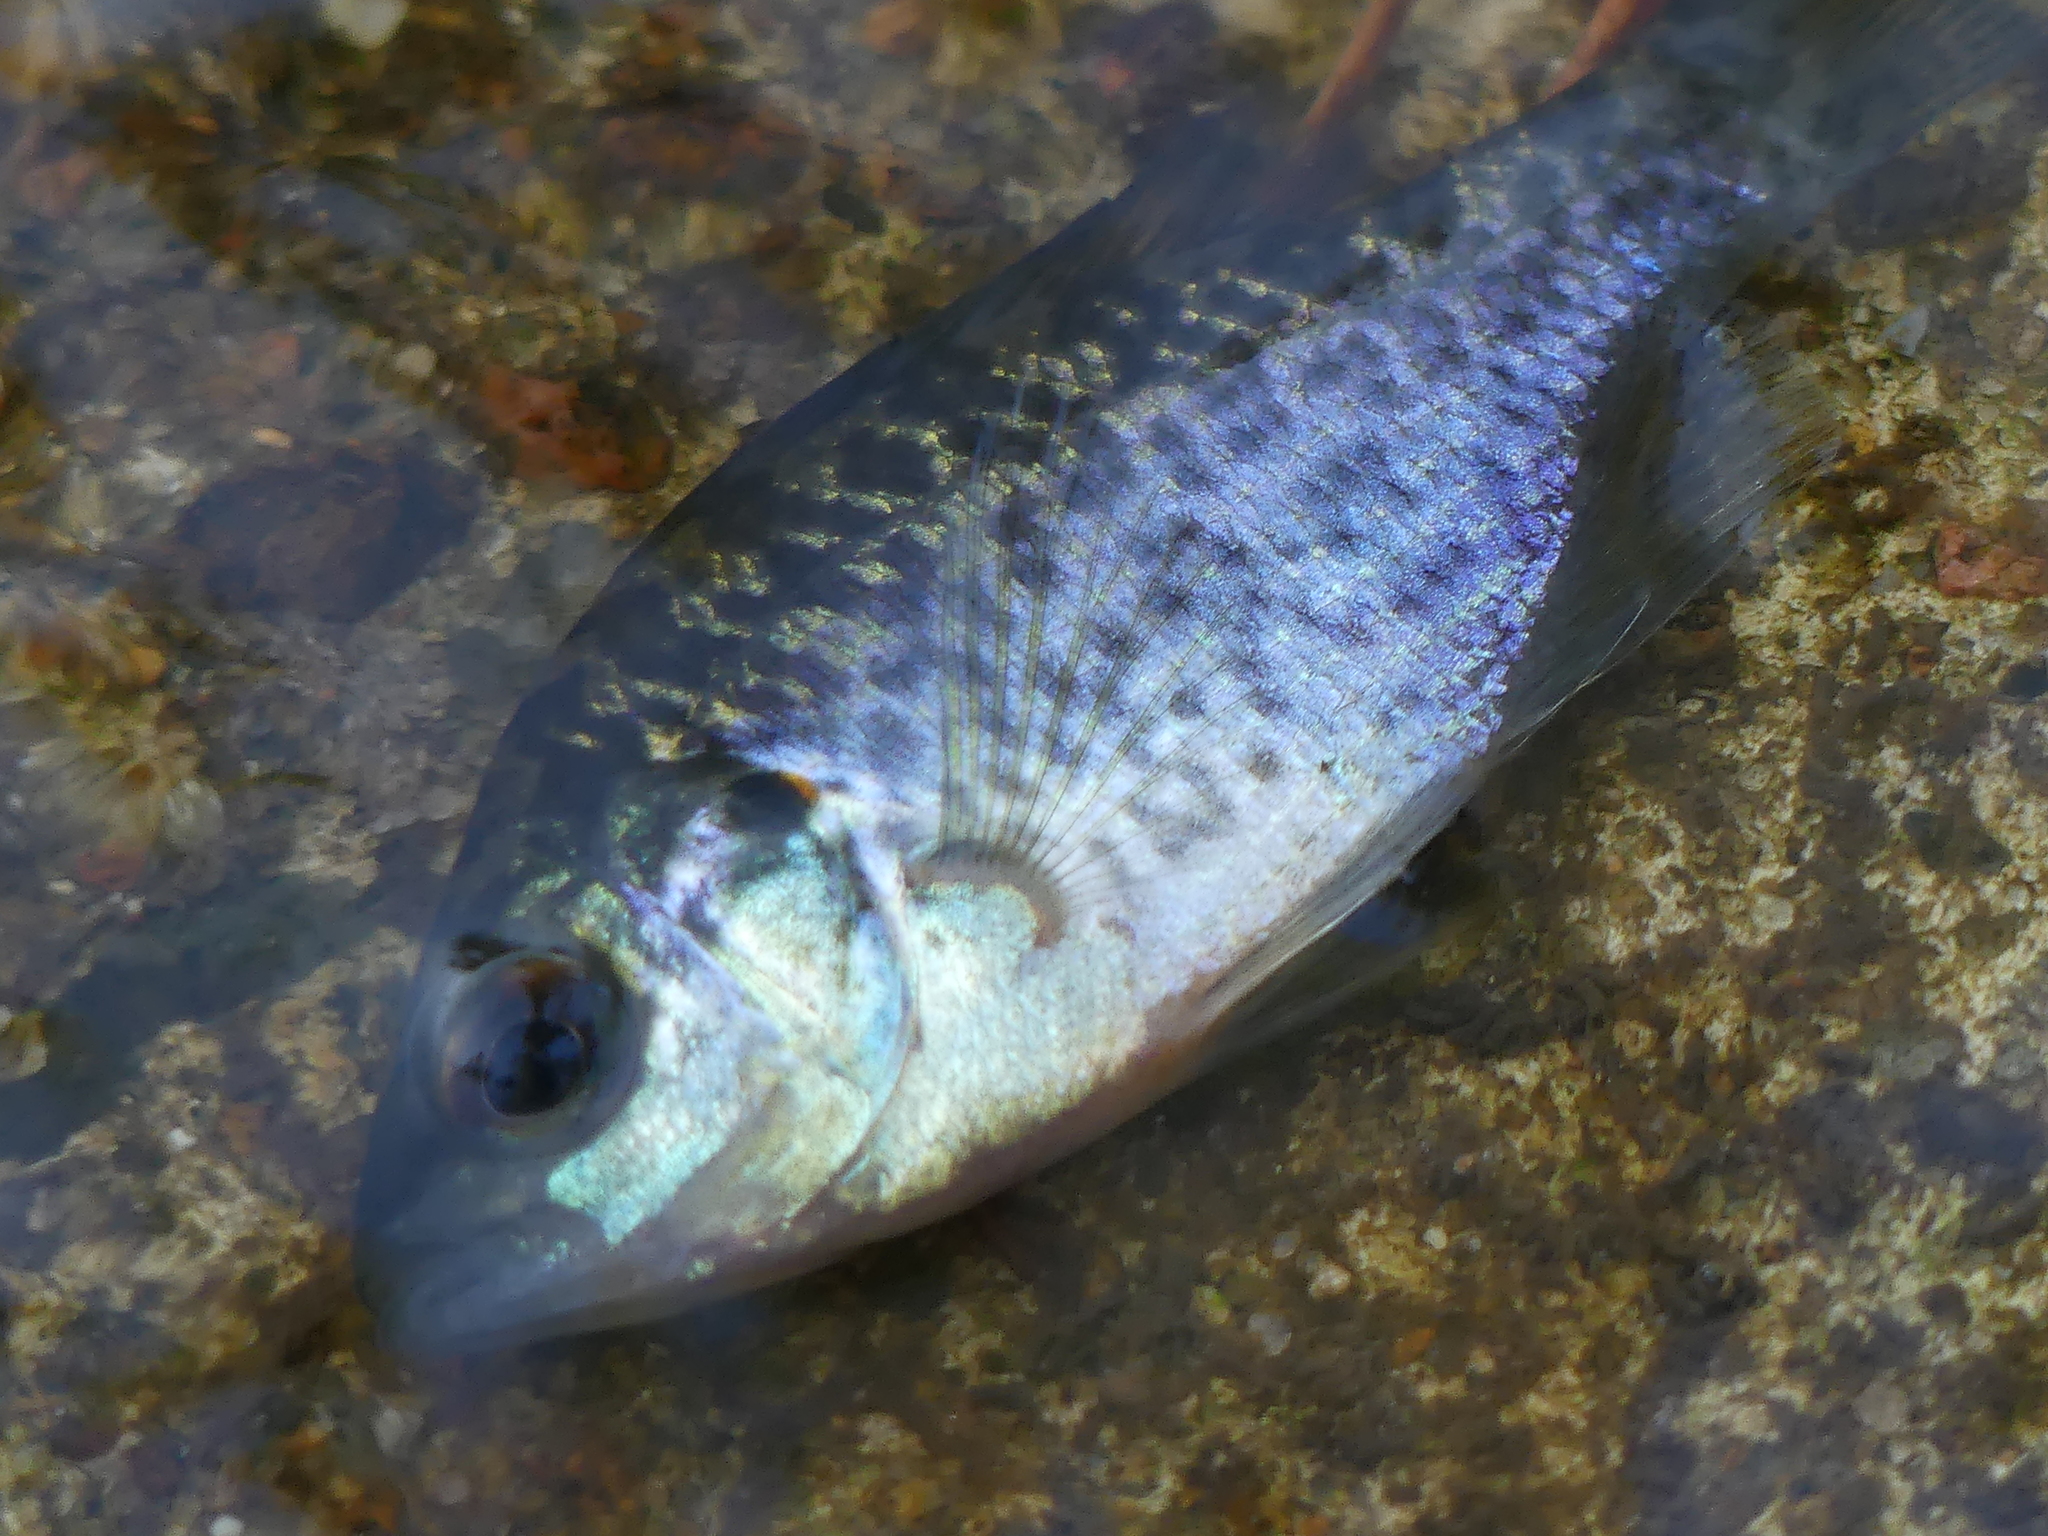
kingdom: Animalia
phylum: Chordata
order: Perciformes
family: Centrarchidae
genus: Lepomis
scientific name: Lepomis microlophus
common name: Redear sunfish
